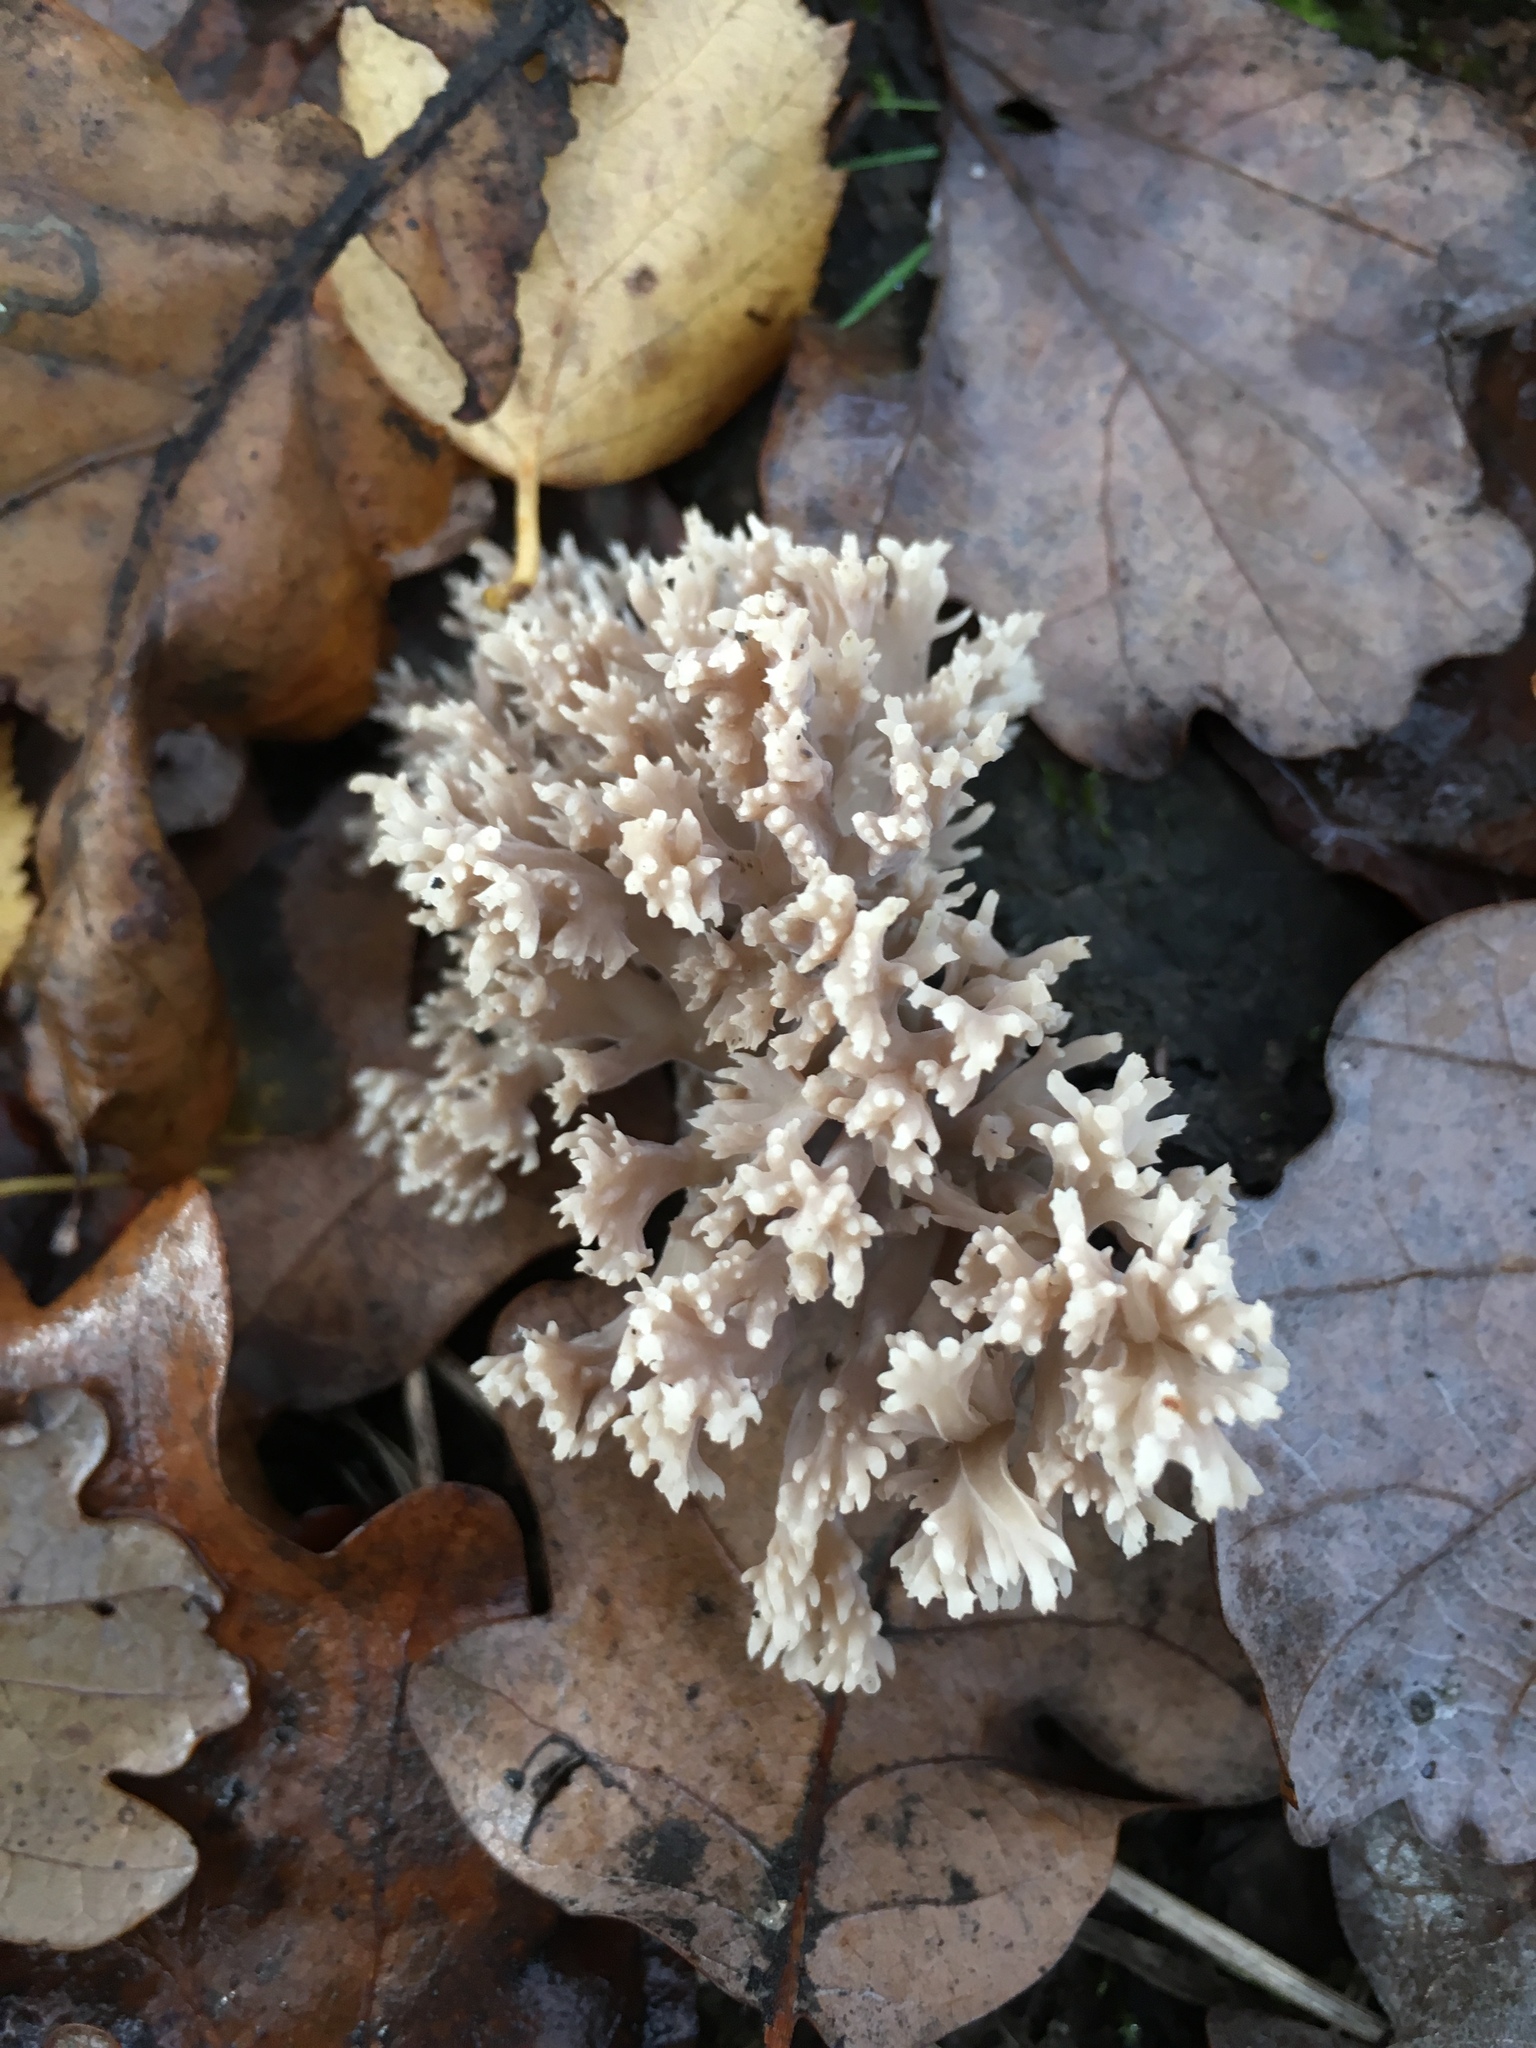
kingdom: Fungi
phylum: Basidiomycota
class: Agaricomycetes
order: Cantharellales
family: Hydnaceae
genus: Clavulina
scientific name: Clavulina coralloides
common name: Crested coral
